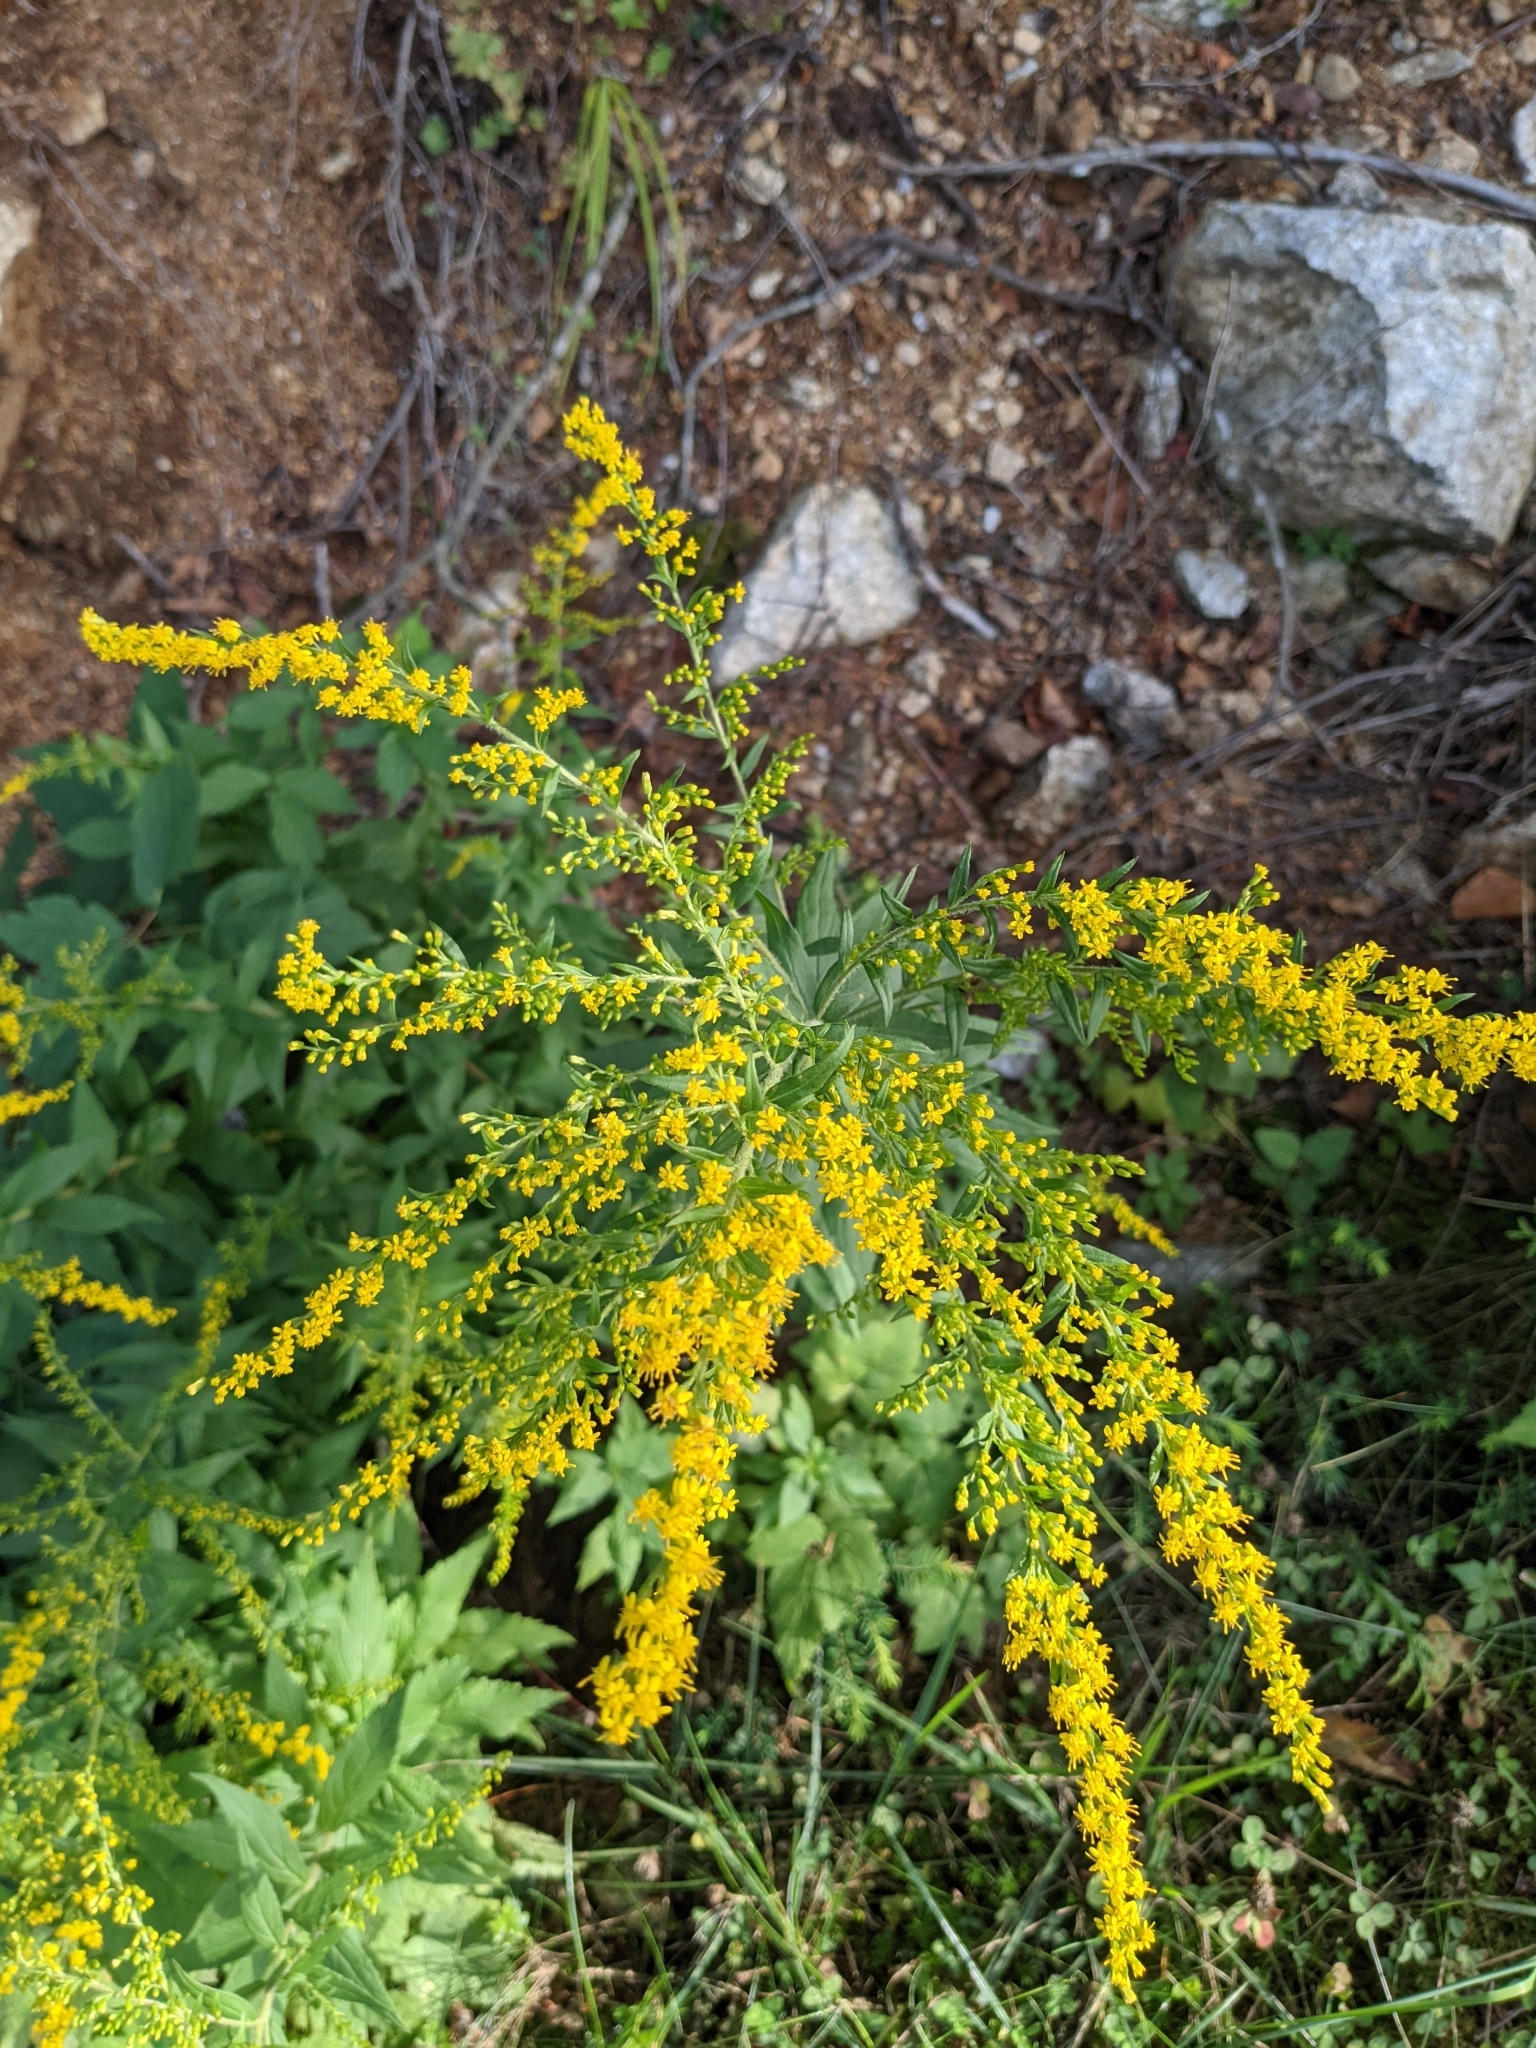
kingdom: Plantae
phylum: Tracheophyta
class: Magnoliopsida
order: Asterales
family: Asteraceae
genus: Solidago
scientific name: Solidago lepida
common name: Western canada goldenrod
